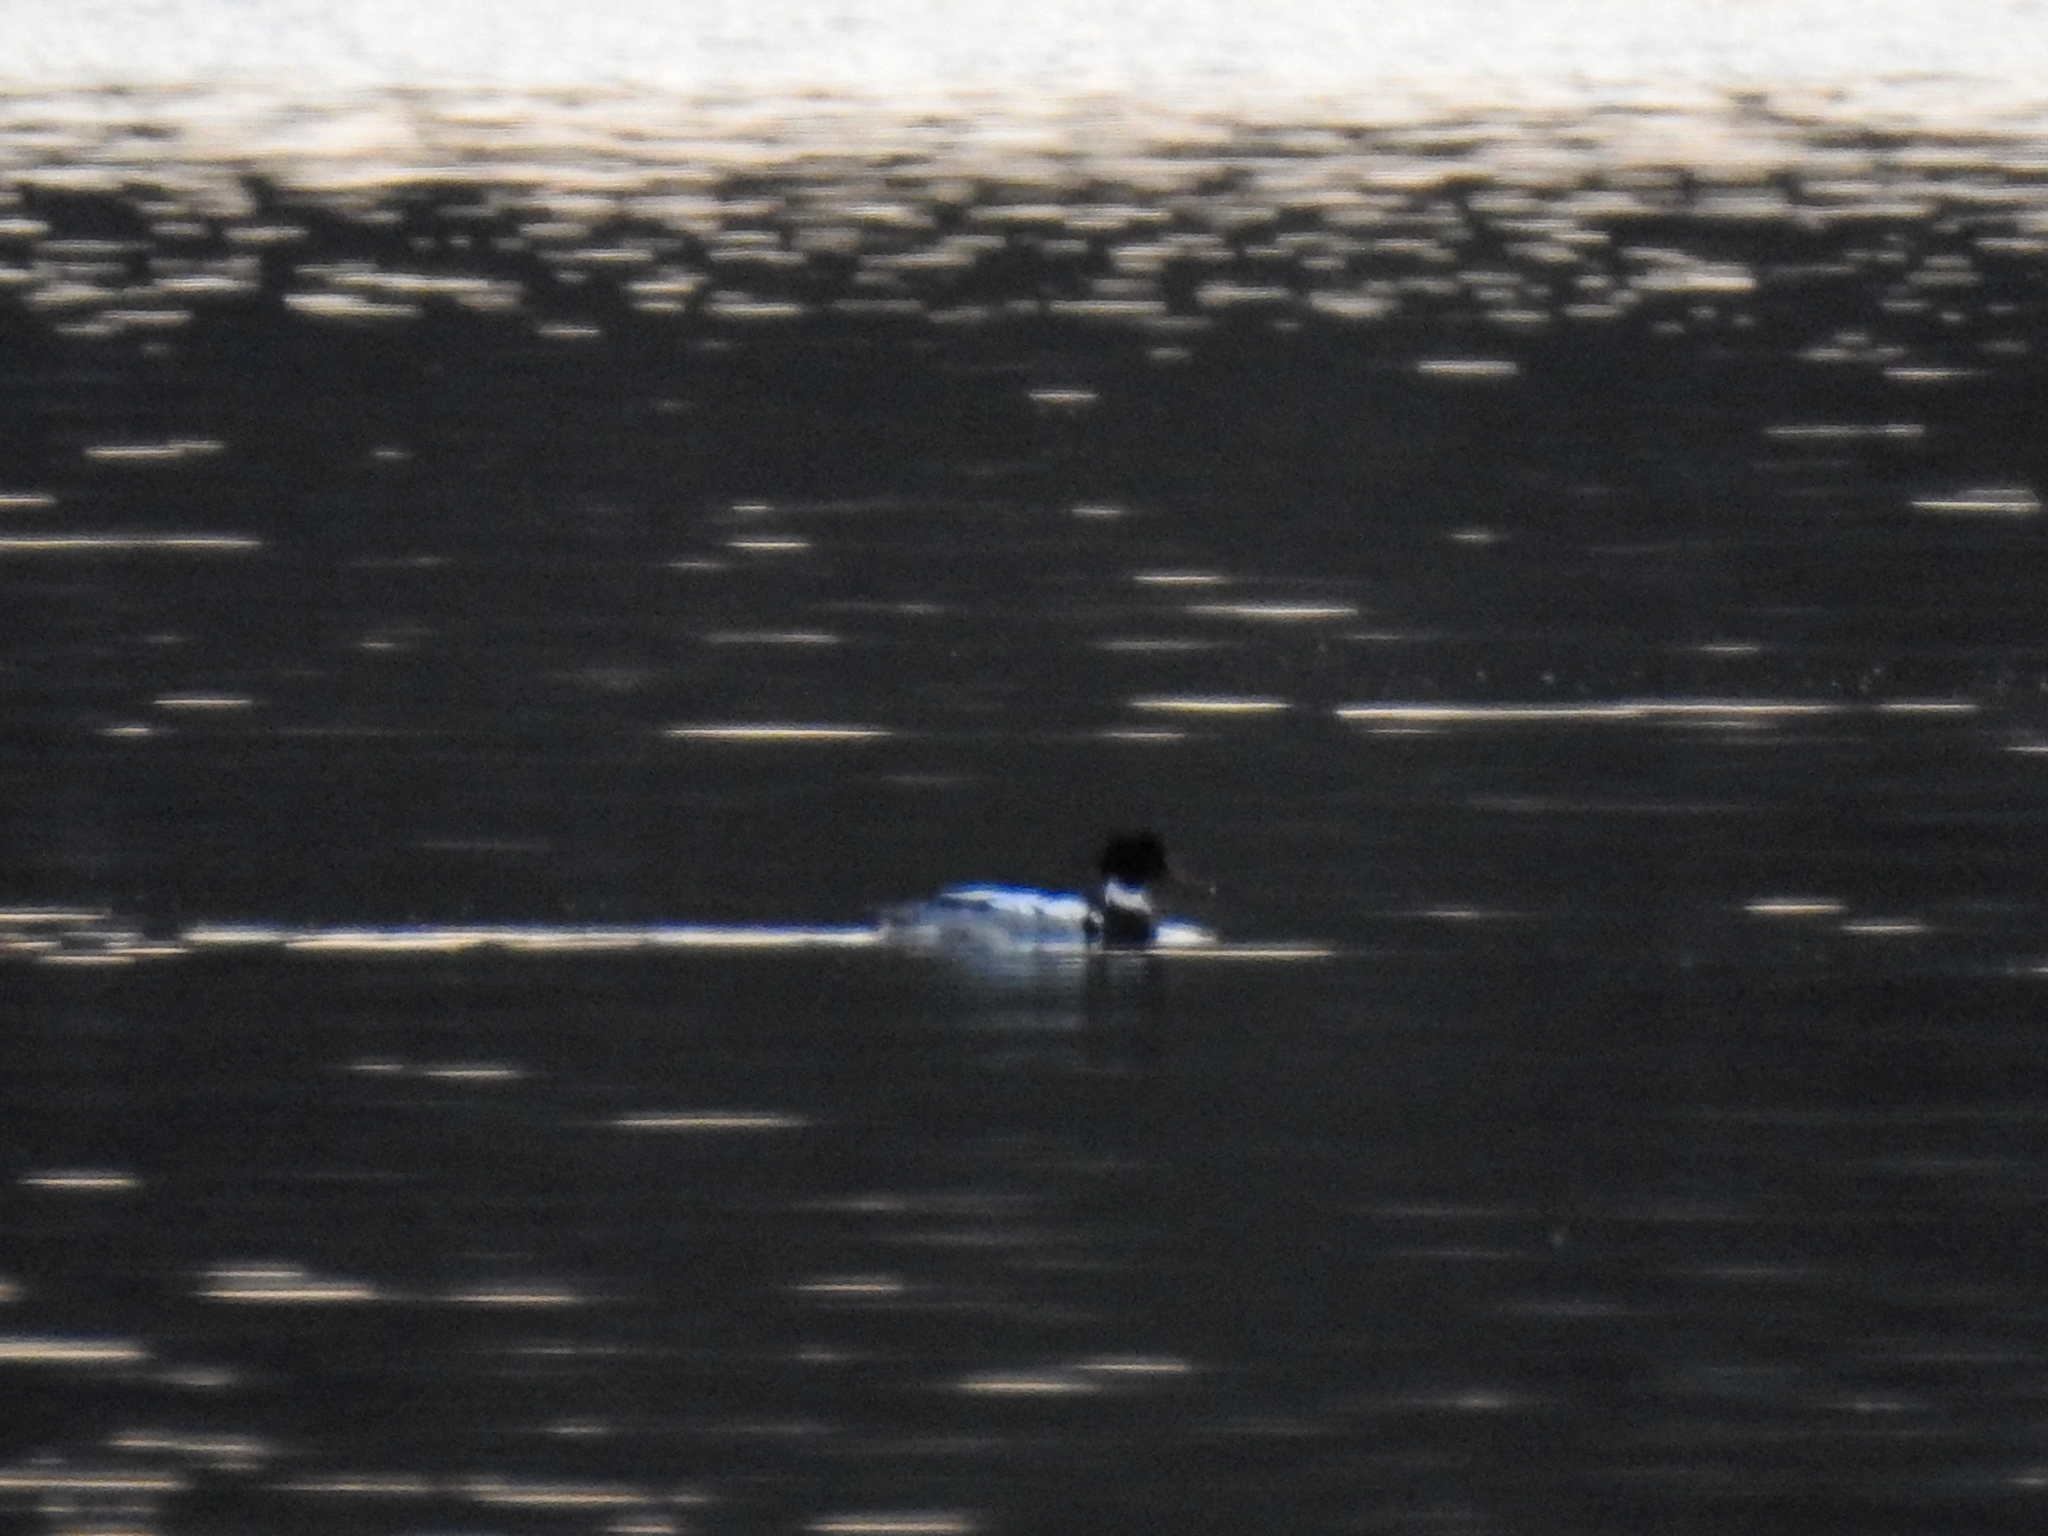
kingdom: Animalia
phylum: Chordata
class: Aves
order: Anseriformes
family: Anatidae
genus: Mergus
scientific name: Mergus serrator
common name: Red-breasted merganser
